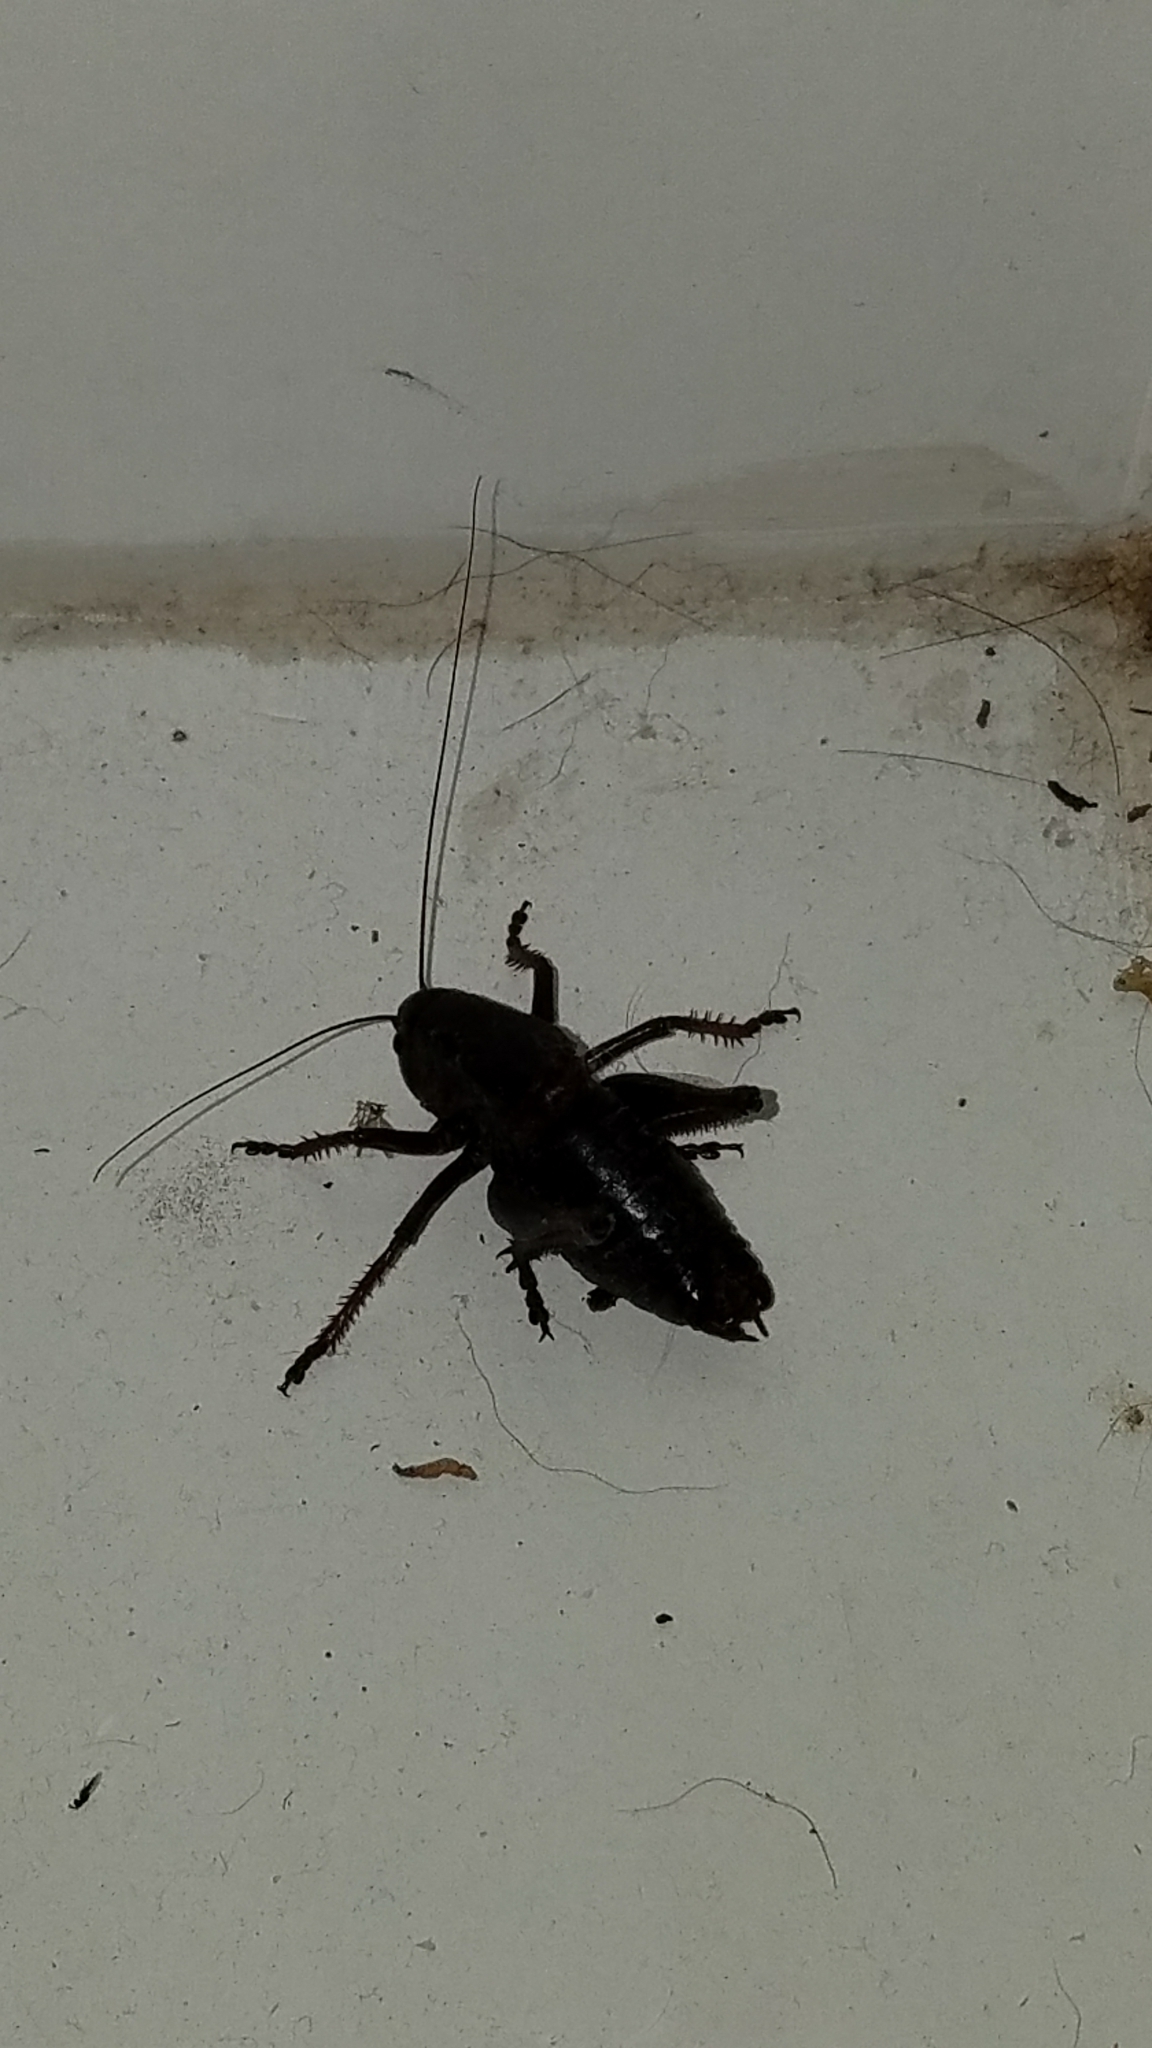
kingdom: Animalia
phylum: Arthropoda
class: Insecta
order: Orthoptera
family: Tettigoniidae
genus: Anabrus
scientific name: Anabrus simplex
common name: Mormon cricket
